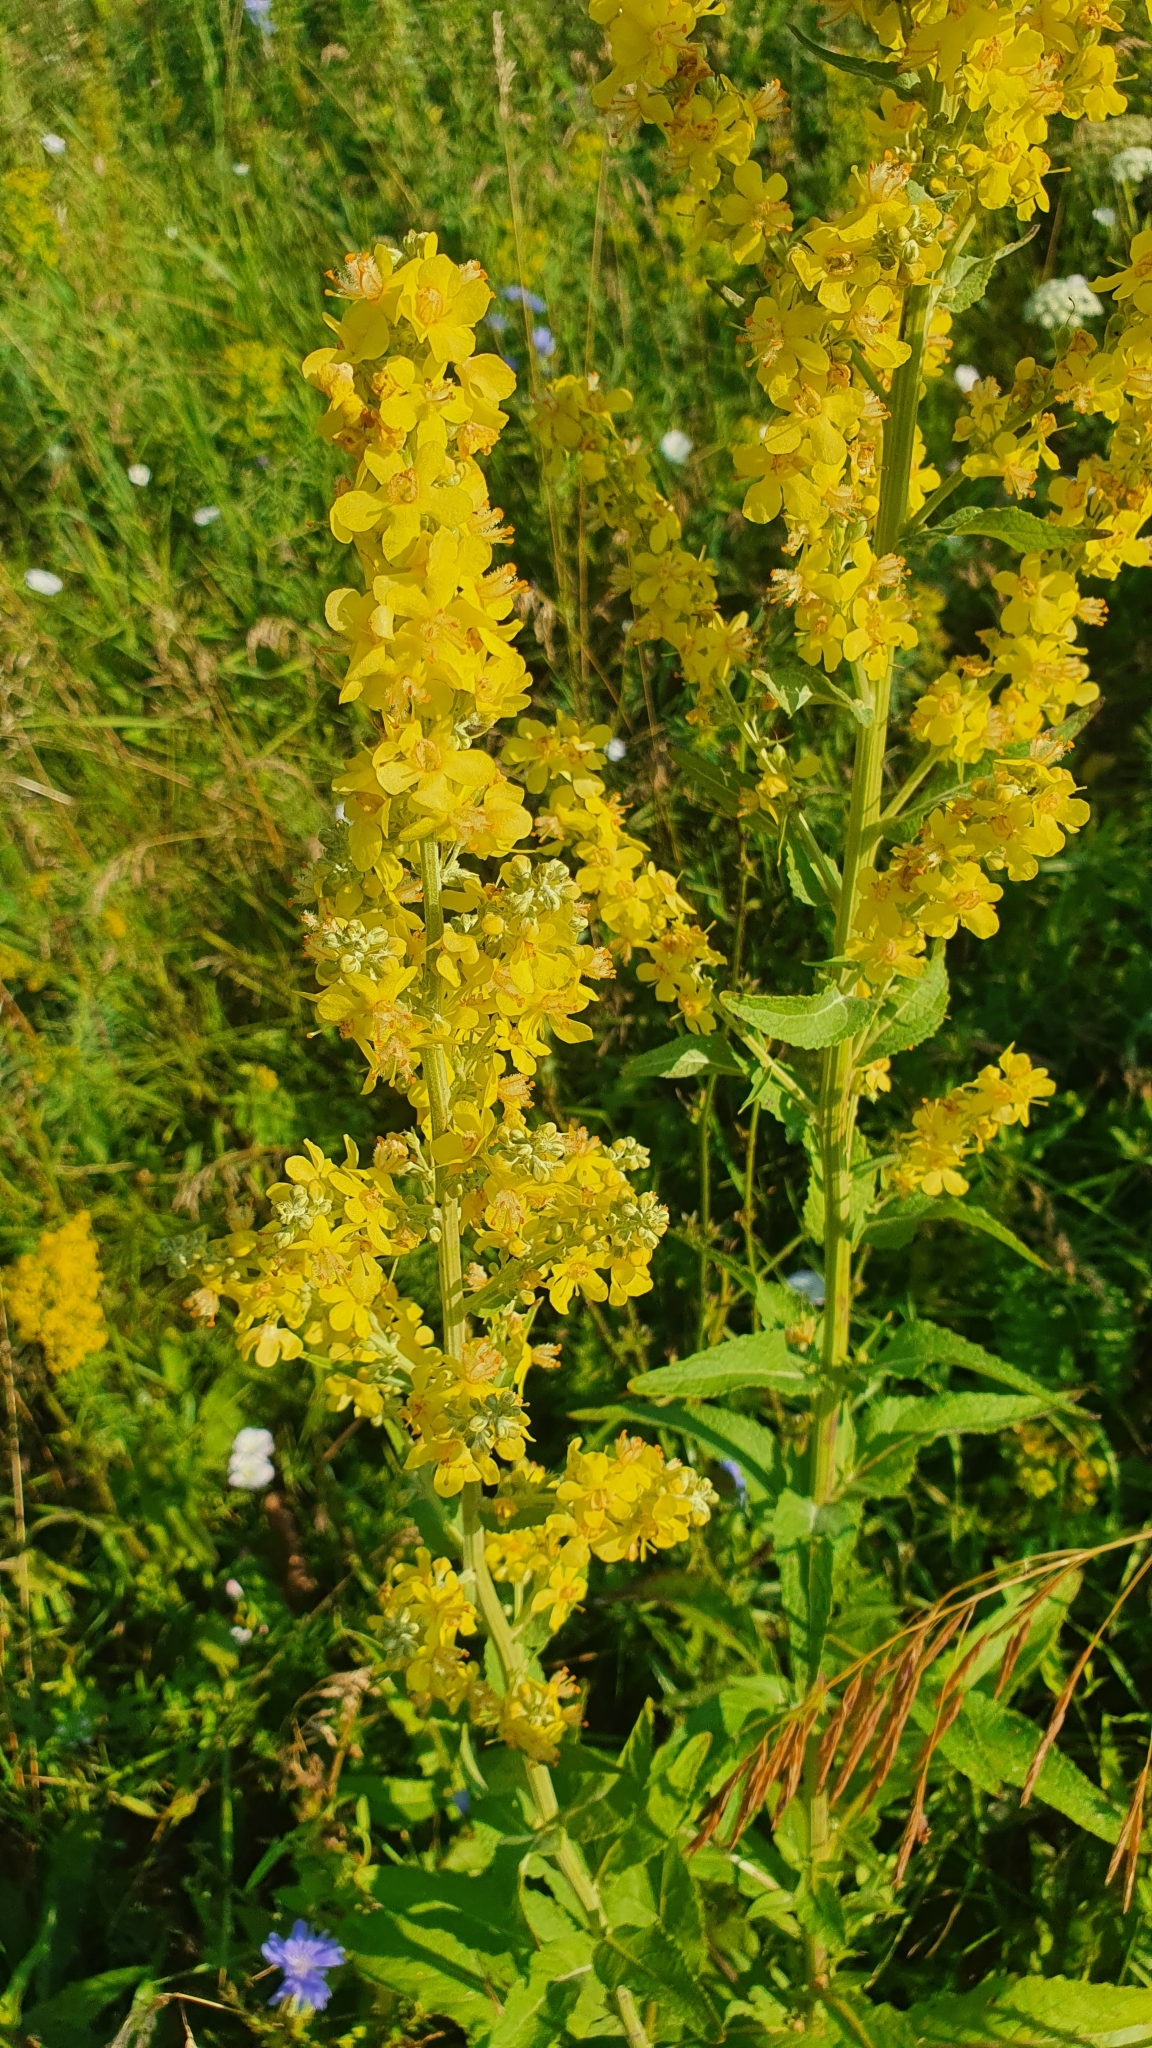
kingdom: Plantae
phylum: Tracheophyta
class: Magnoliopsida
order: Lamiales
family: Scrophulariaceae
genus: Verbascum
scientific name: Verbascum lychnitis
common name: White mullein
